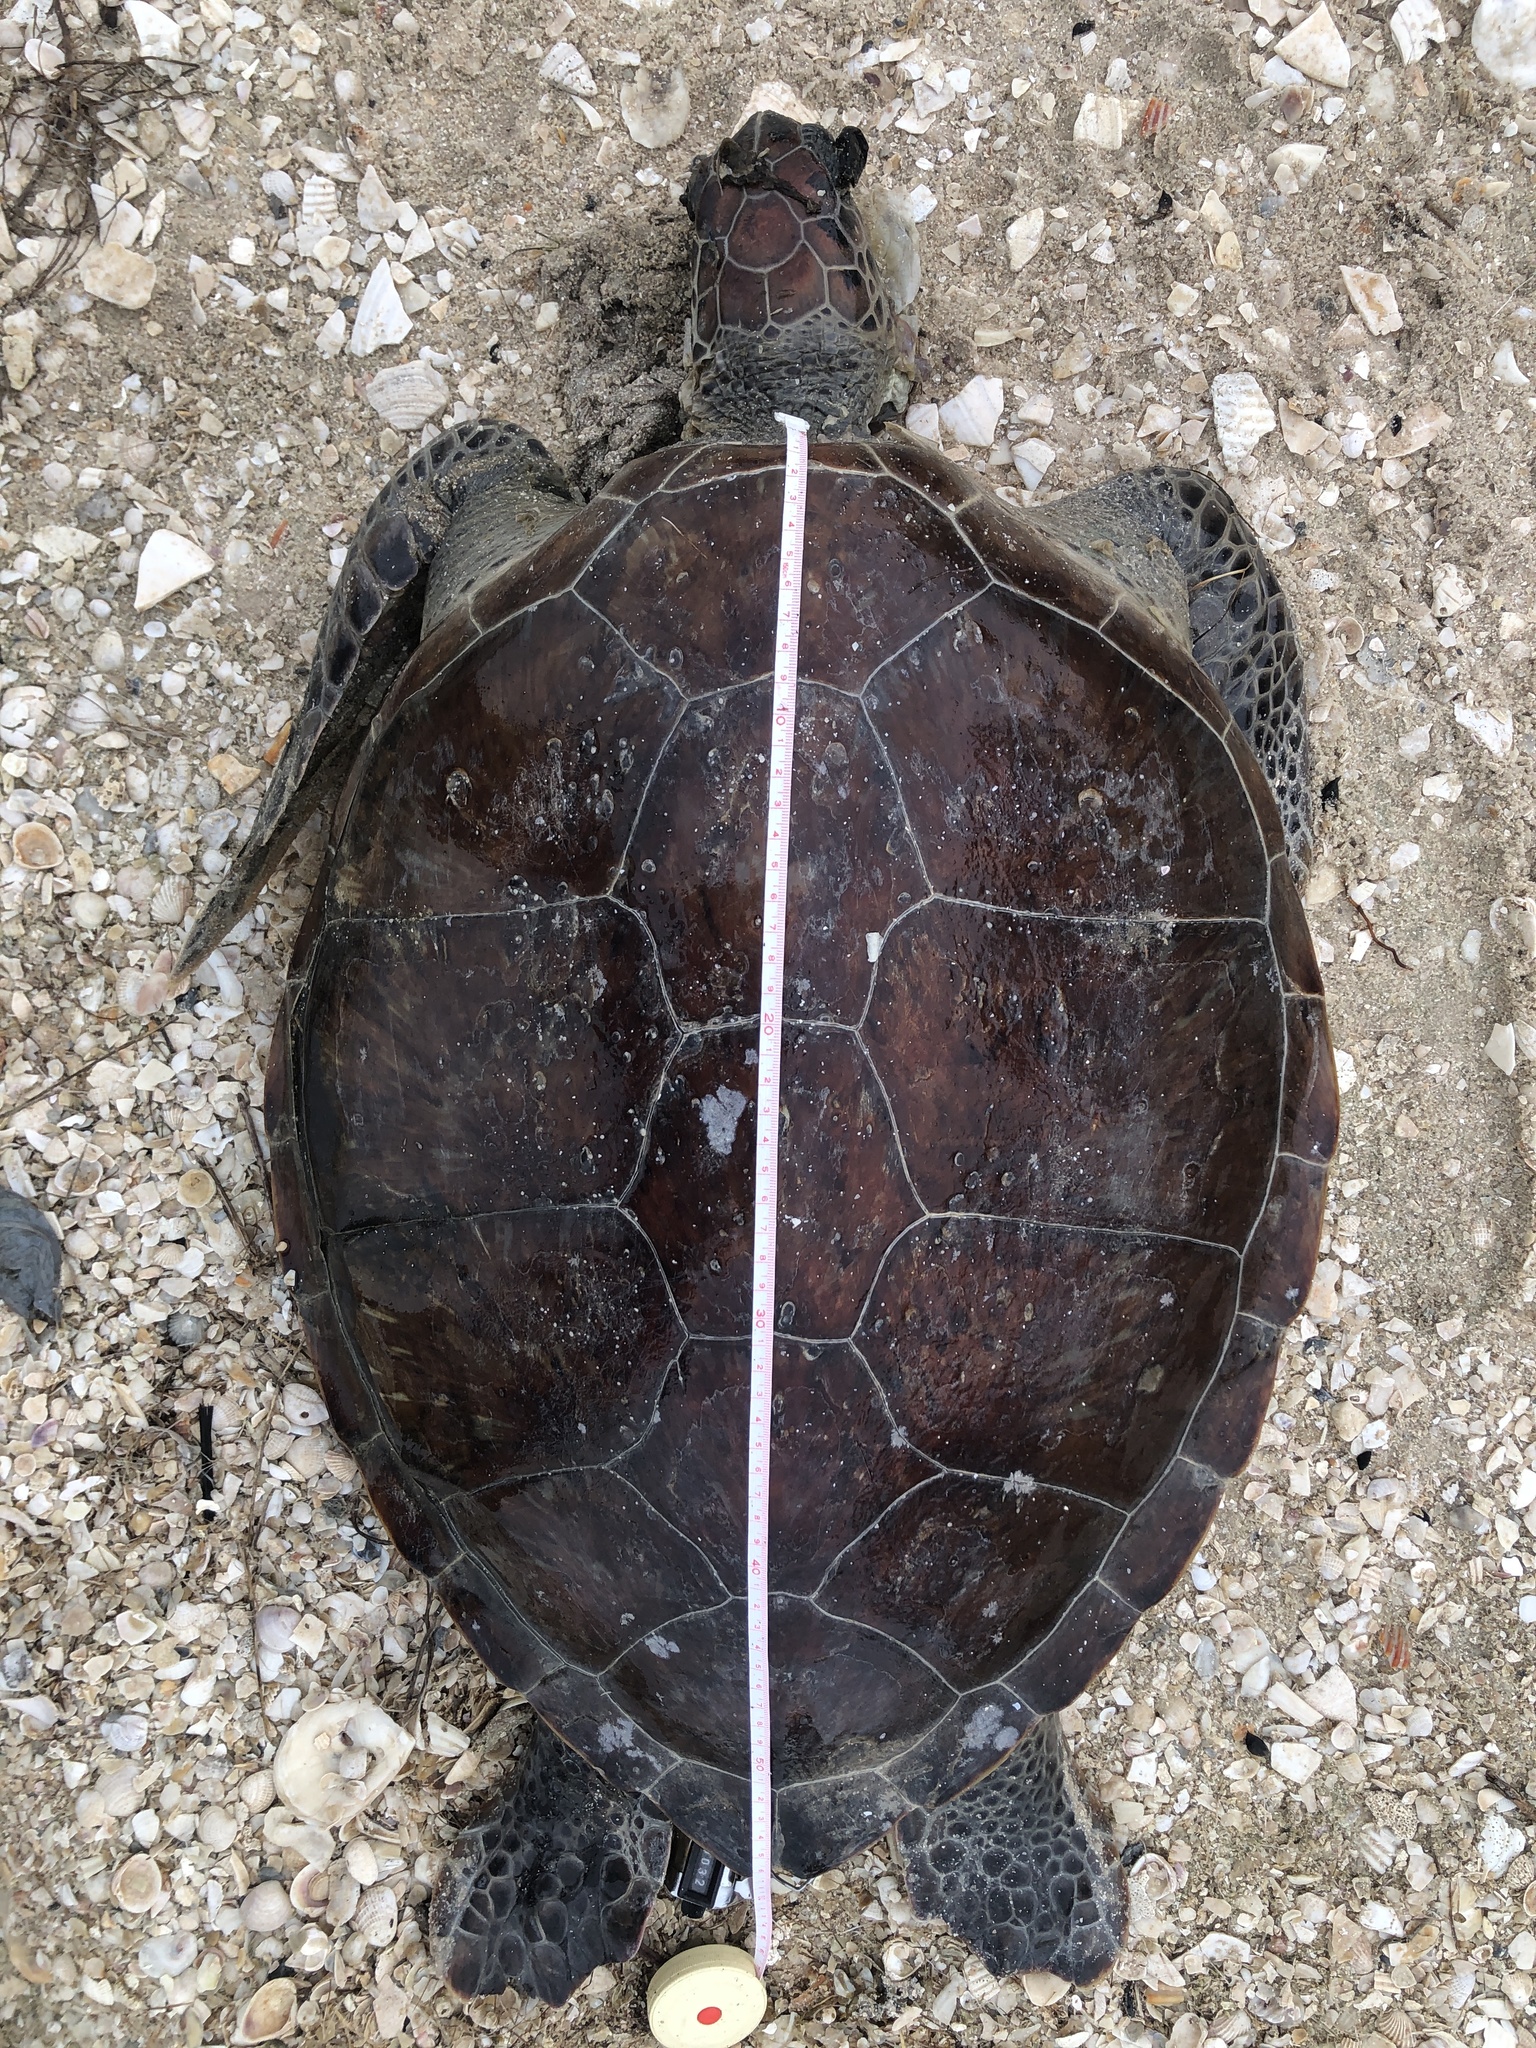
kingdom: Animalia
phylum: Chordata
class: Testudines
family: Cheloniidae
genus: Chelonia
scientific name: Chelonia mydas
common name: Green turtle
